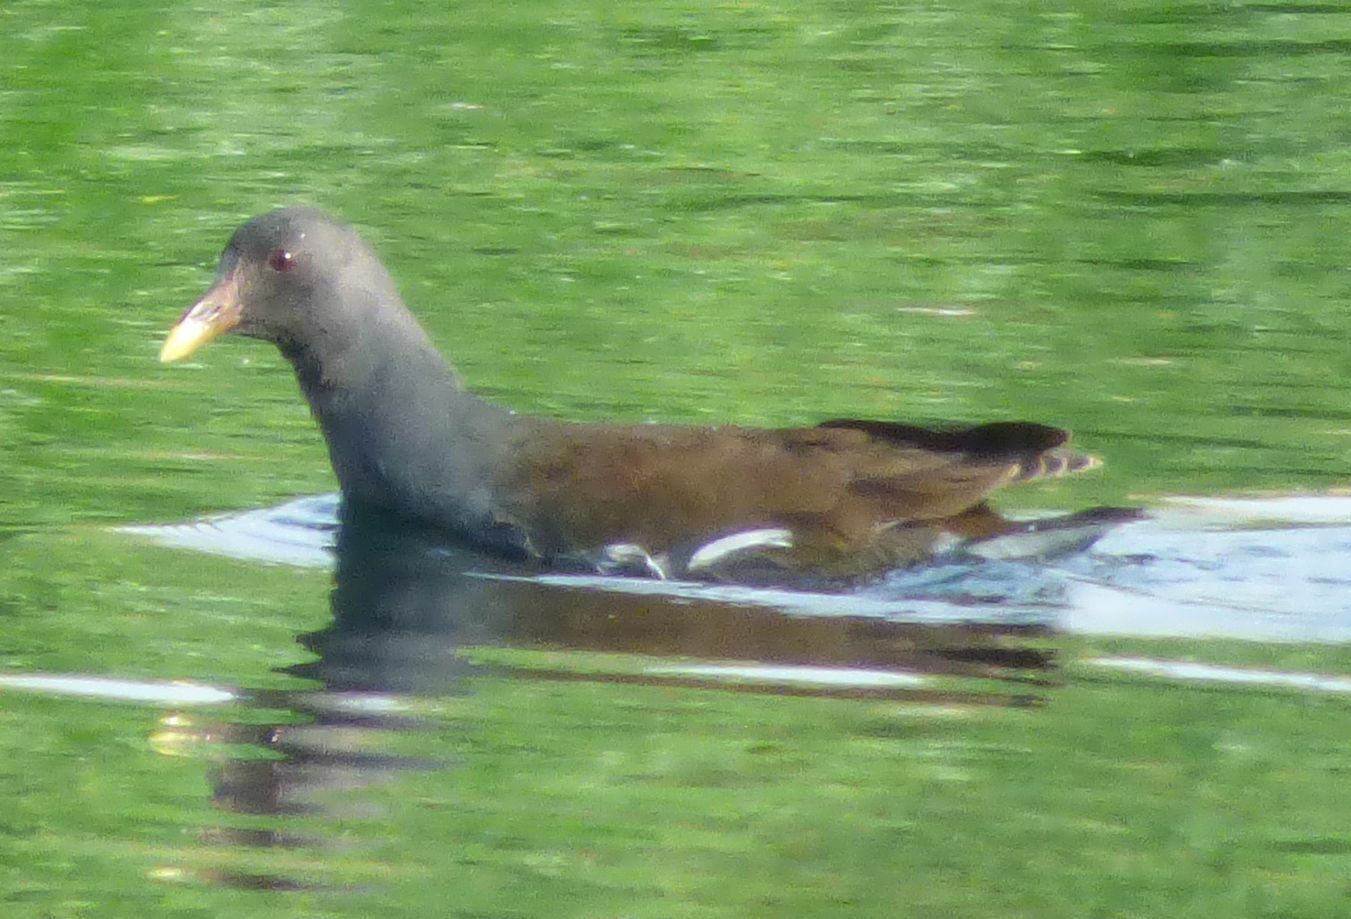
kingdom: Animalia
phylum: Chordata
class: Aves
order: Gruiformes
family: Rallidae
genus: Gallinula
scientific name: Gallinula chloropus
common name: Common moorhen
